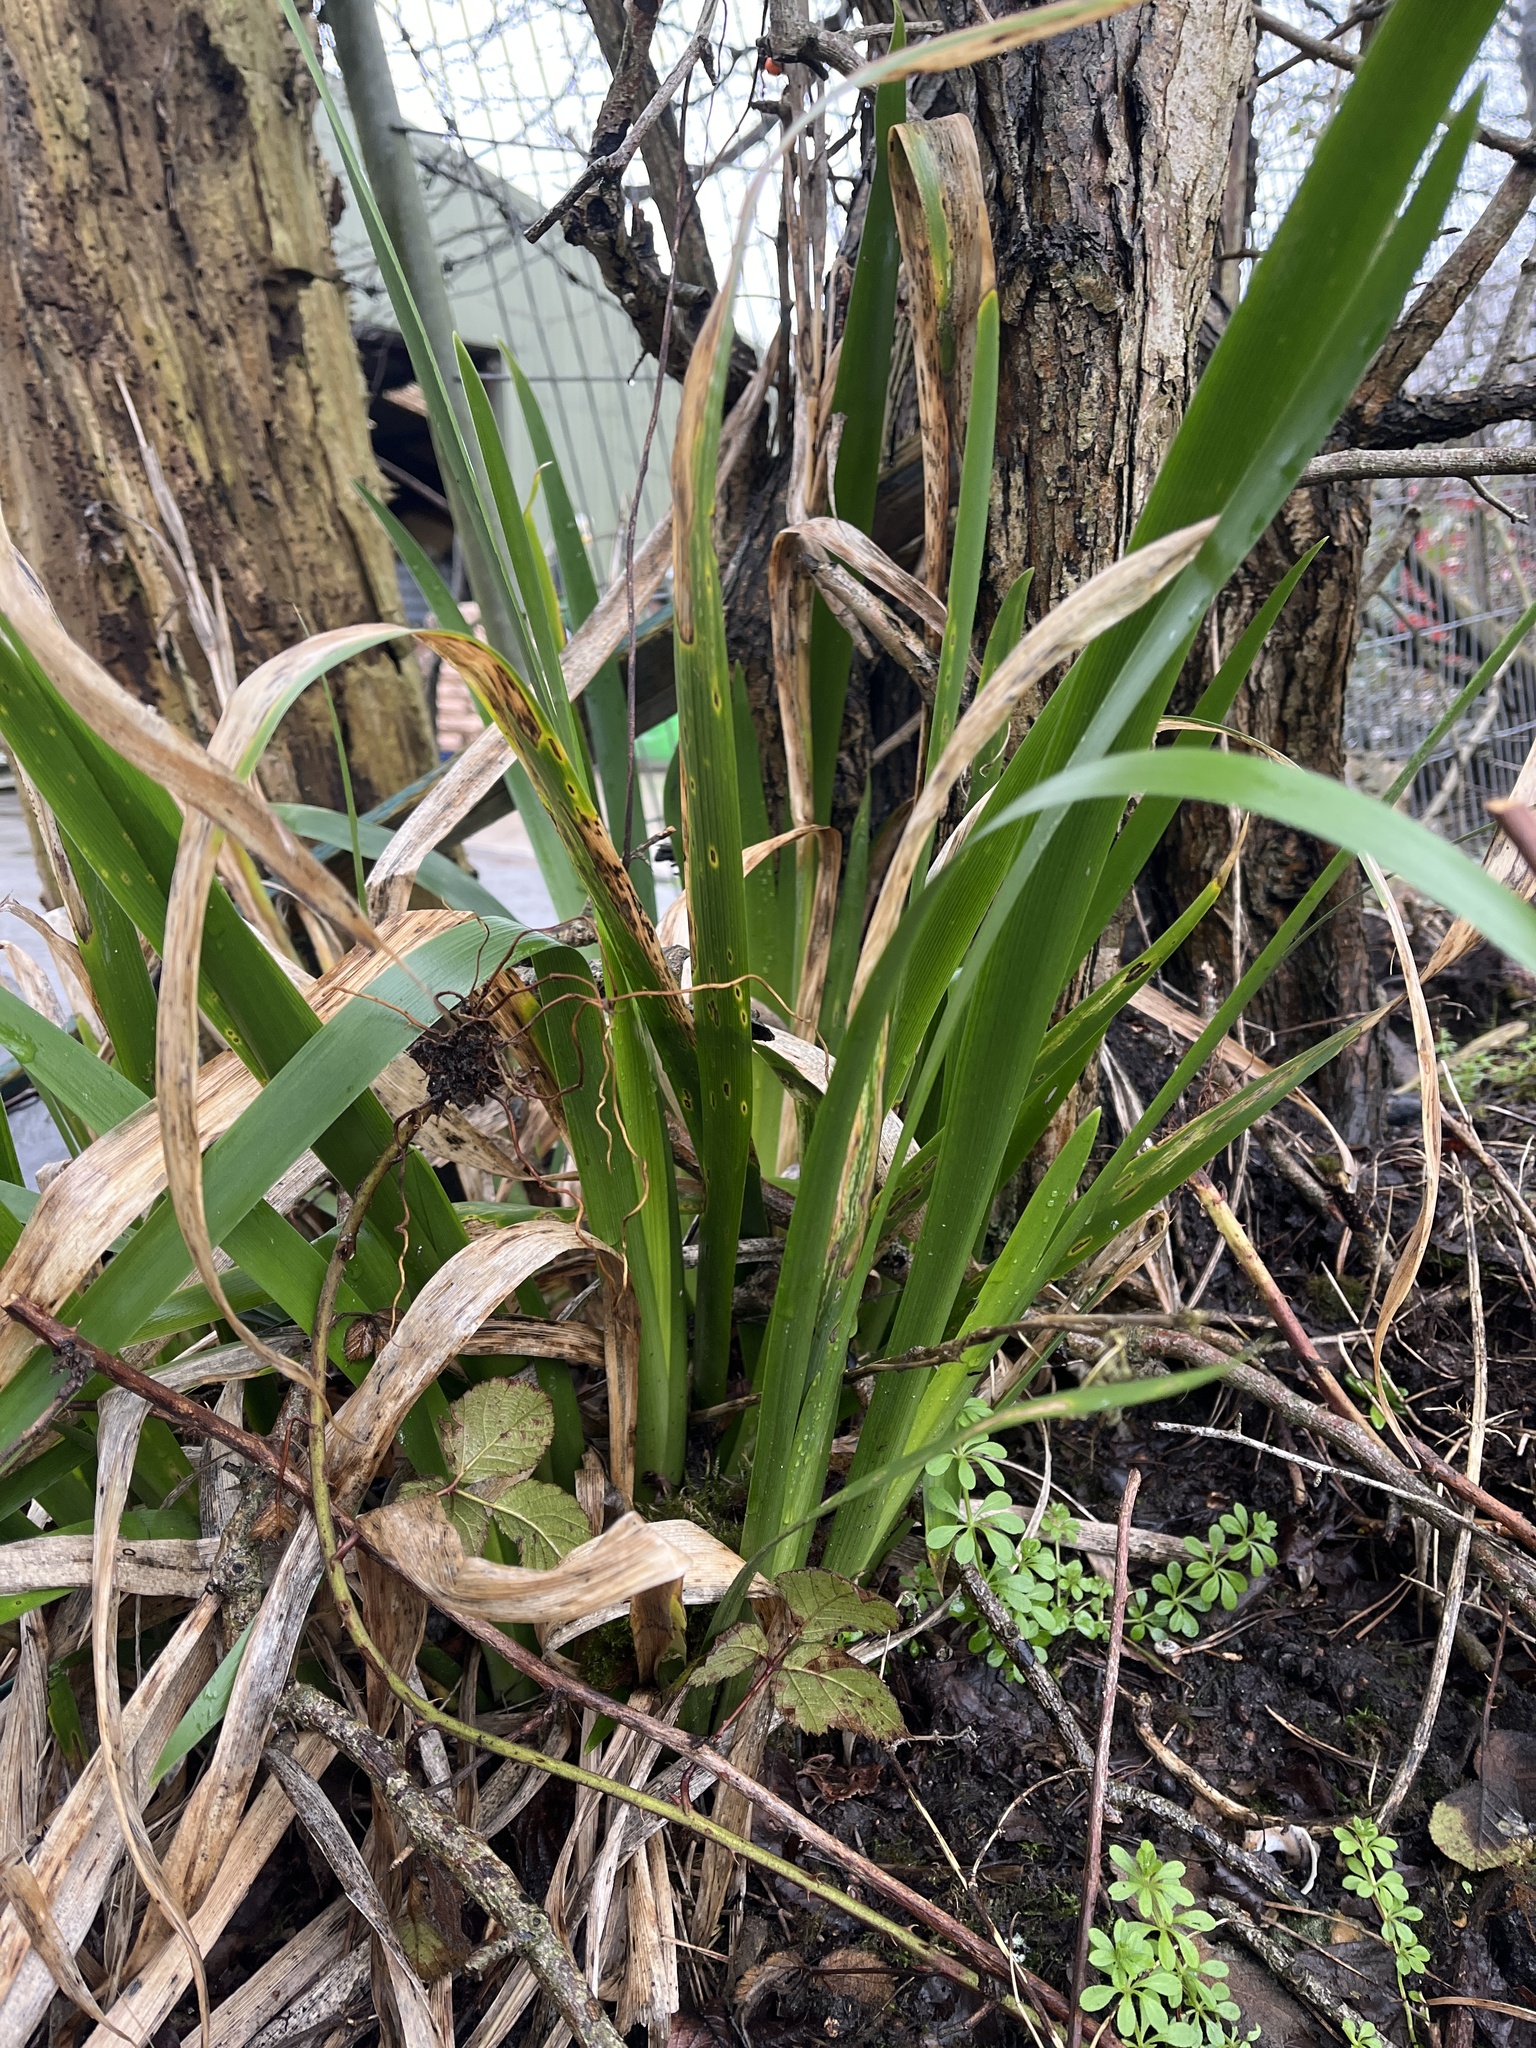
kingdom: Plantae
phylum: Tracheophyta
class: Liliopsida
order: Asparagales
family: Iridaceae
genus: Iris
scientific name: Iris foetidissima
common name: Stinking iris
